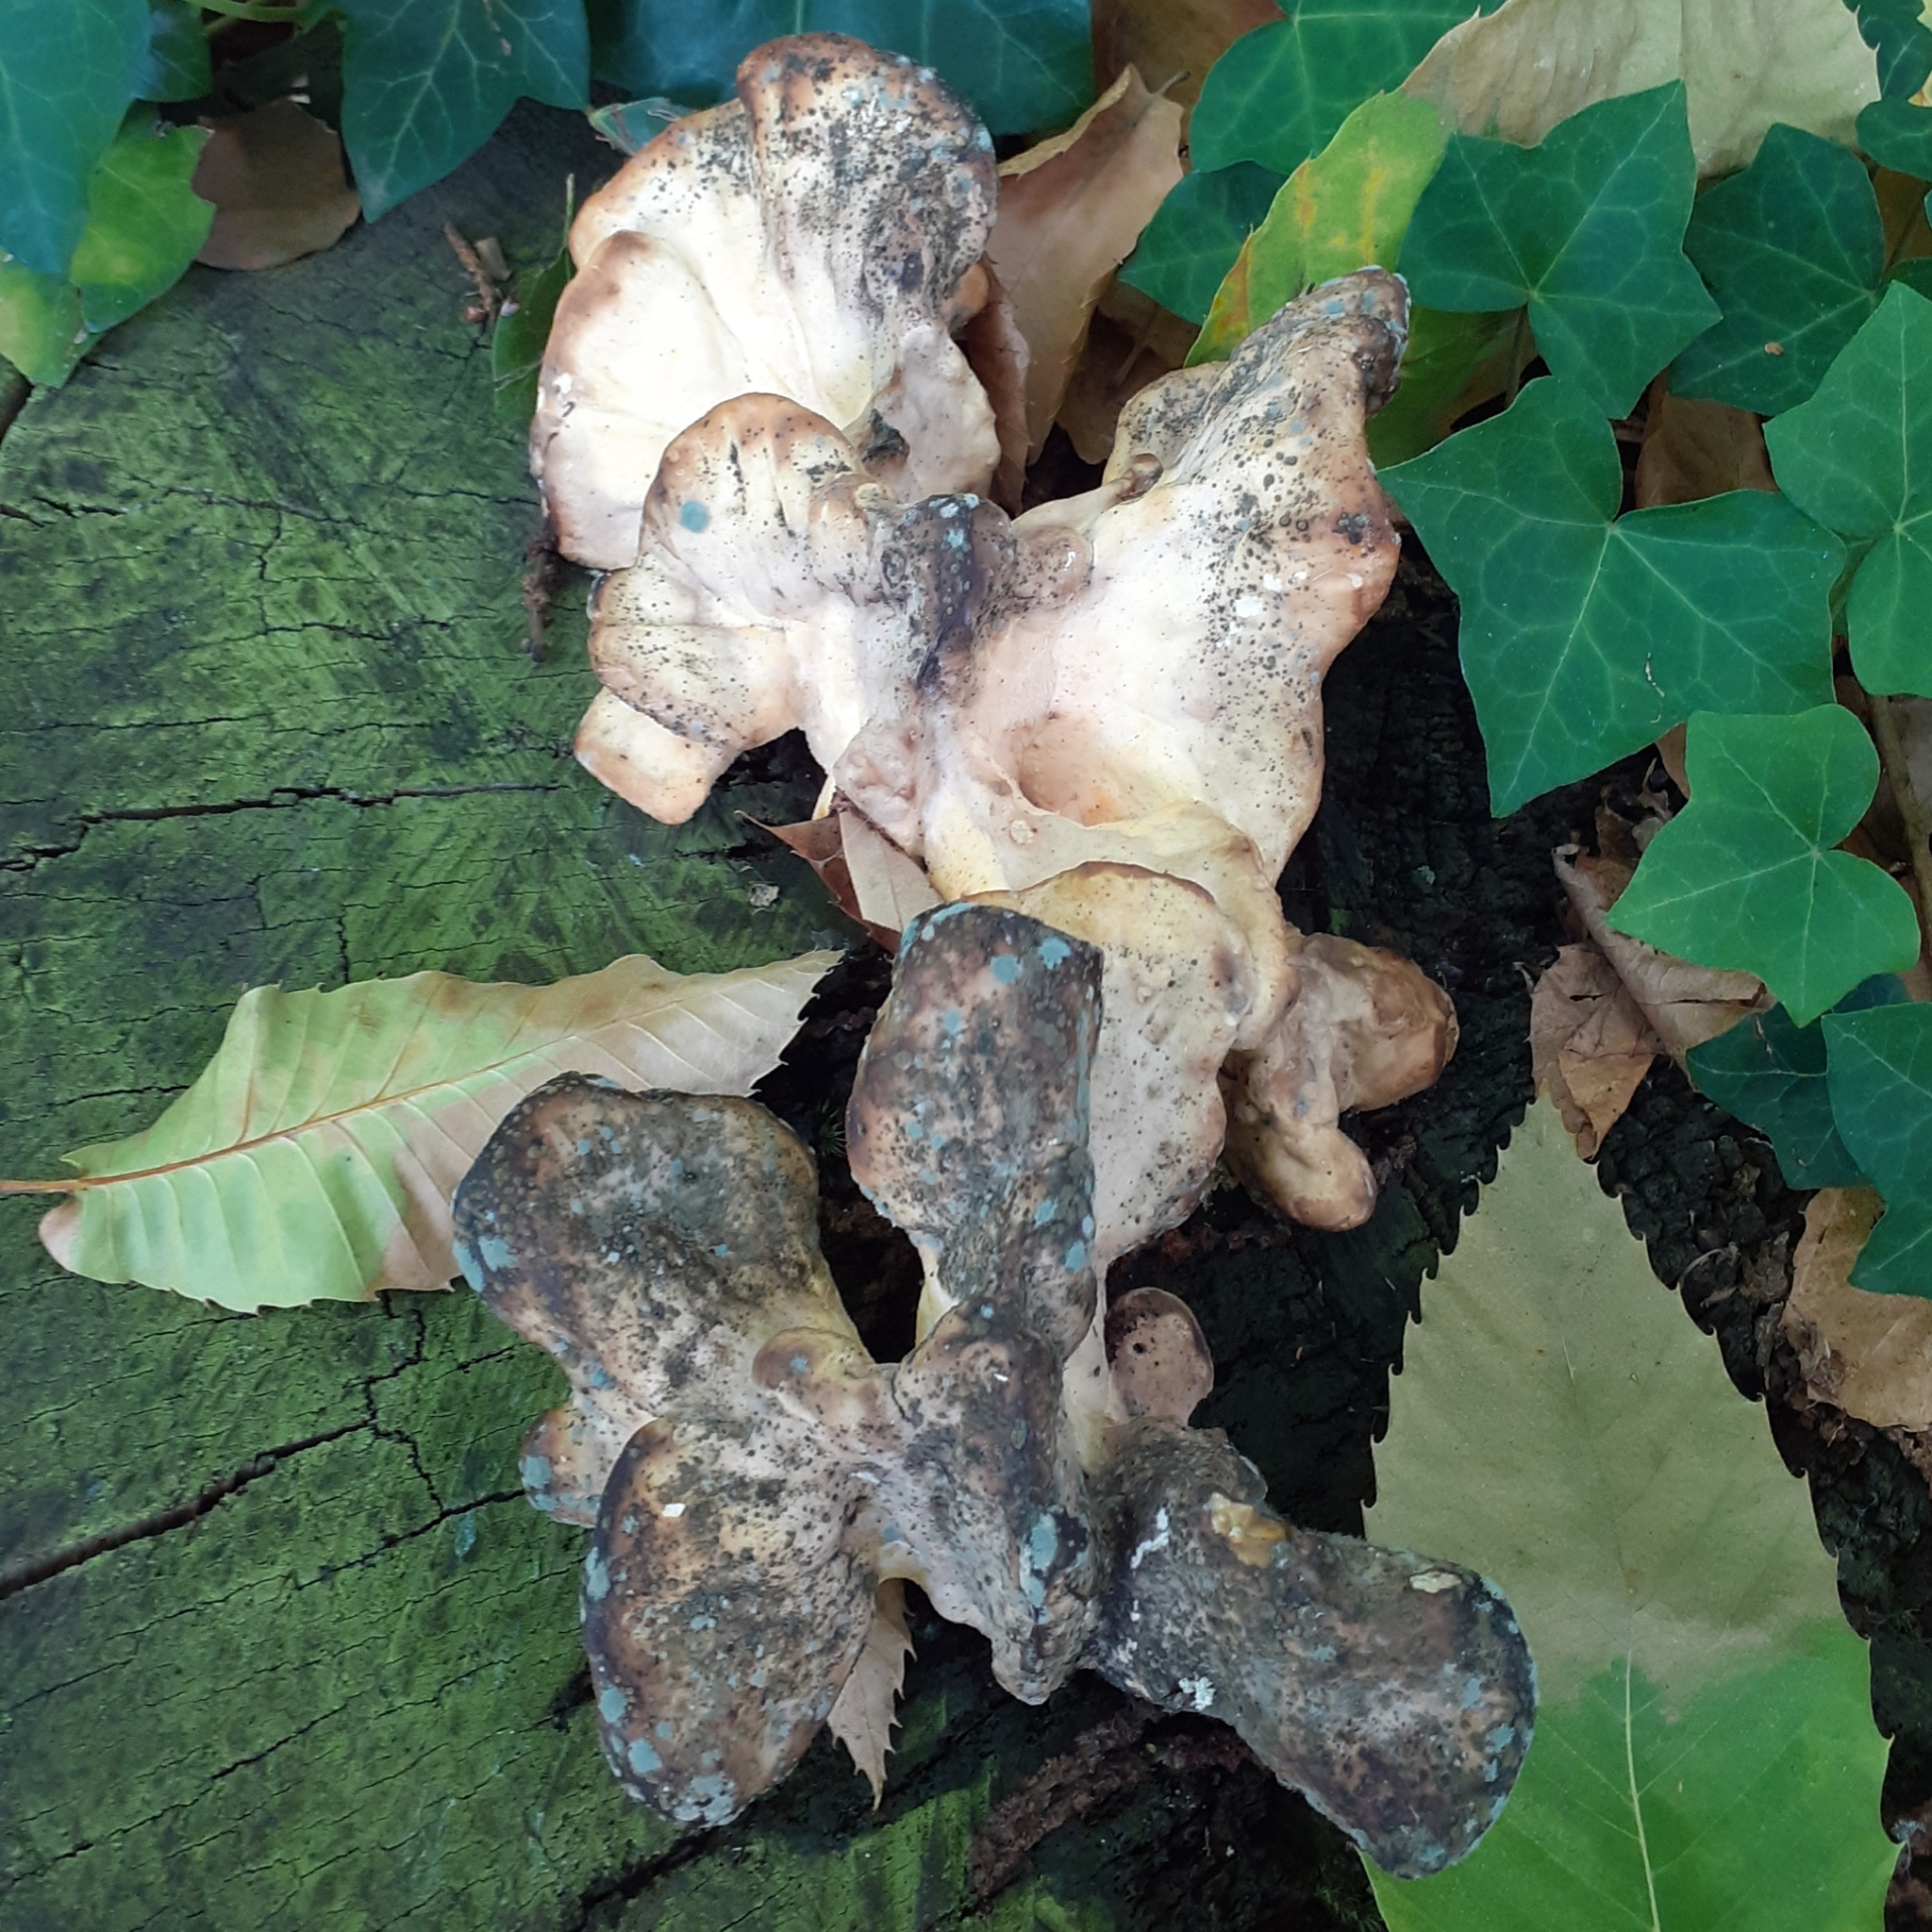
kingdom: Fungi
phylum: Basidiomycota
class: Agaricomycetes
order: Polyporales
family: Laetiporaceae
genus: Laetiporus
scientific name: Laetiporus sulphureus
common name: Chicken of the woods
